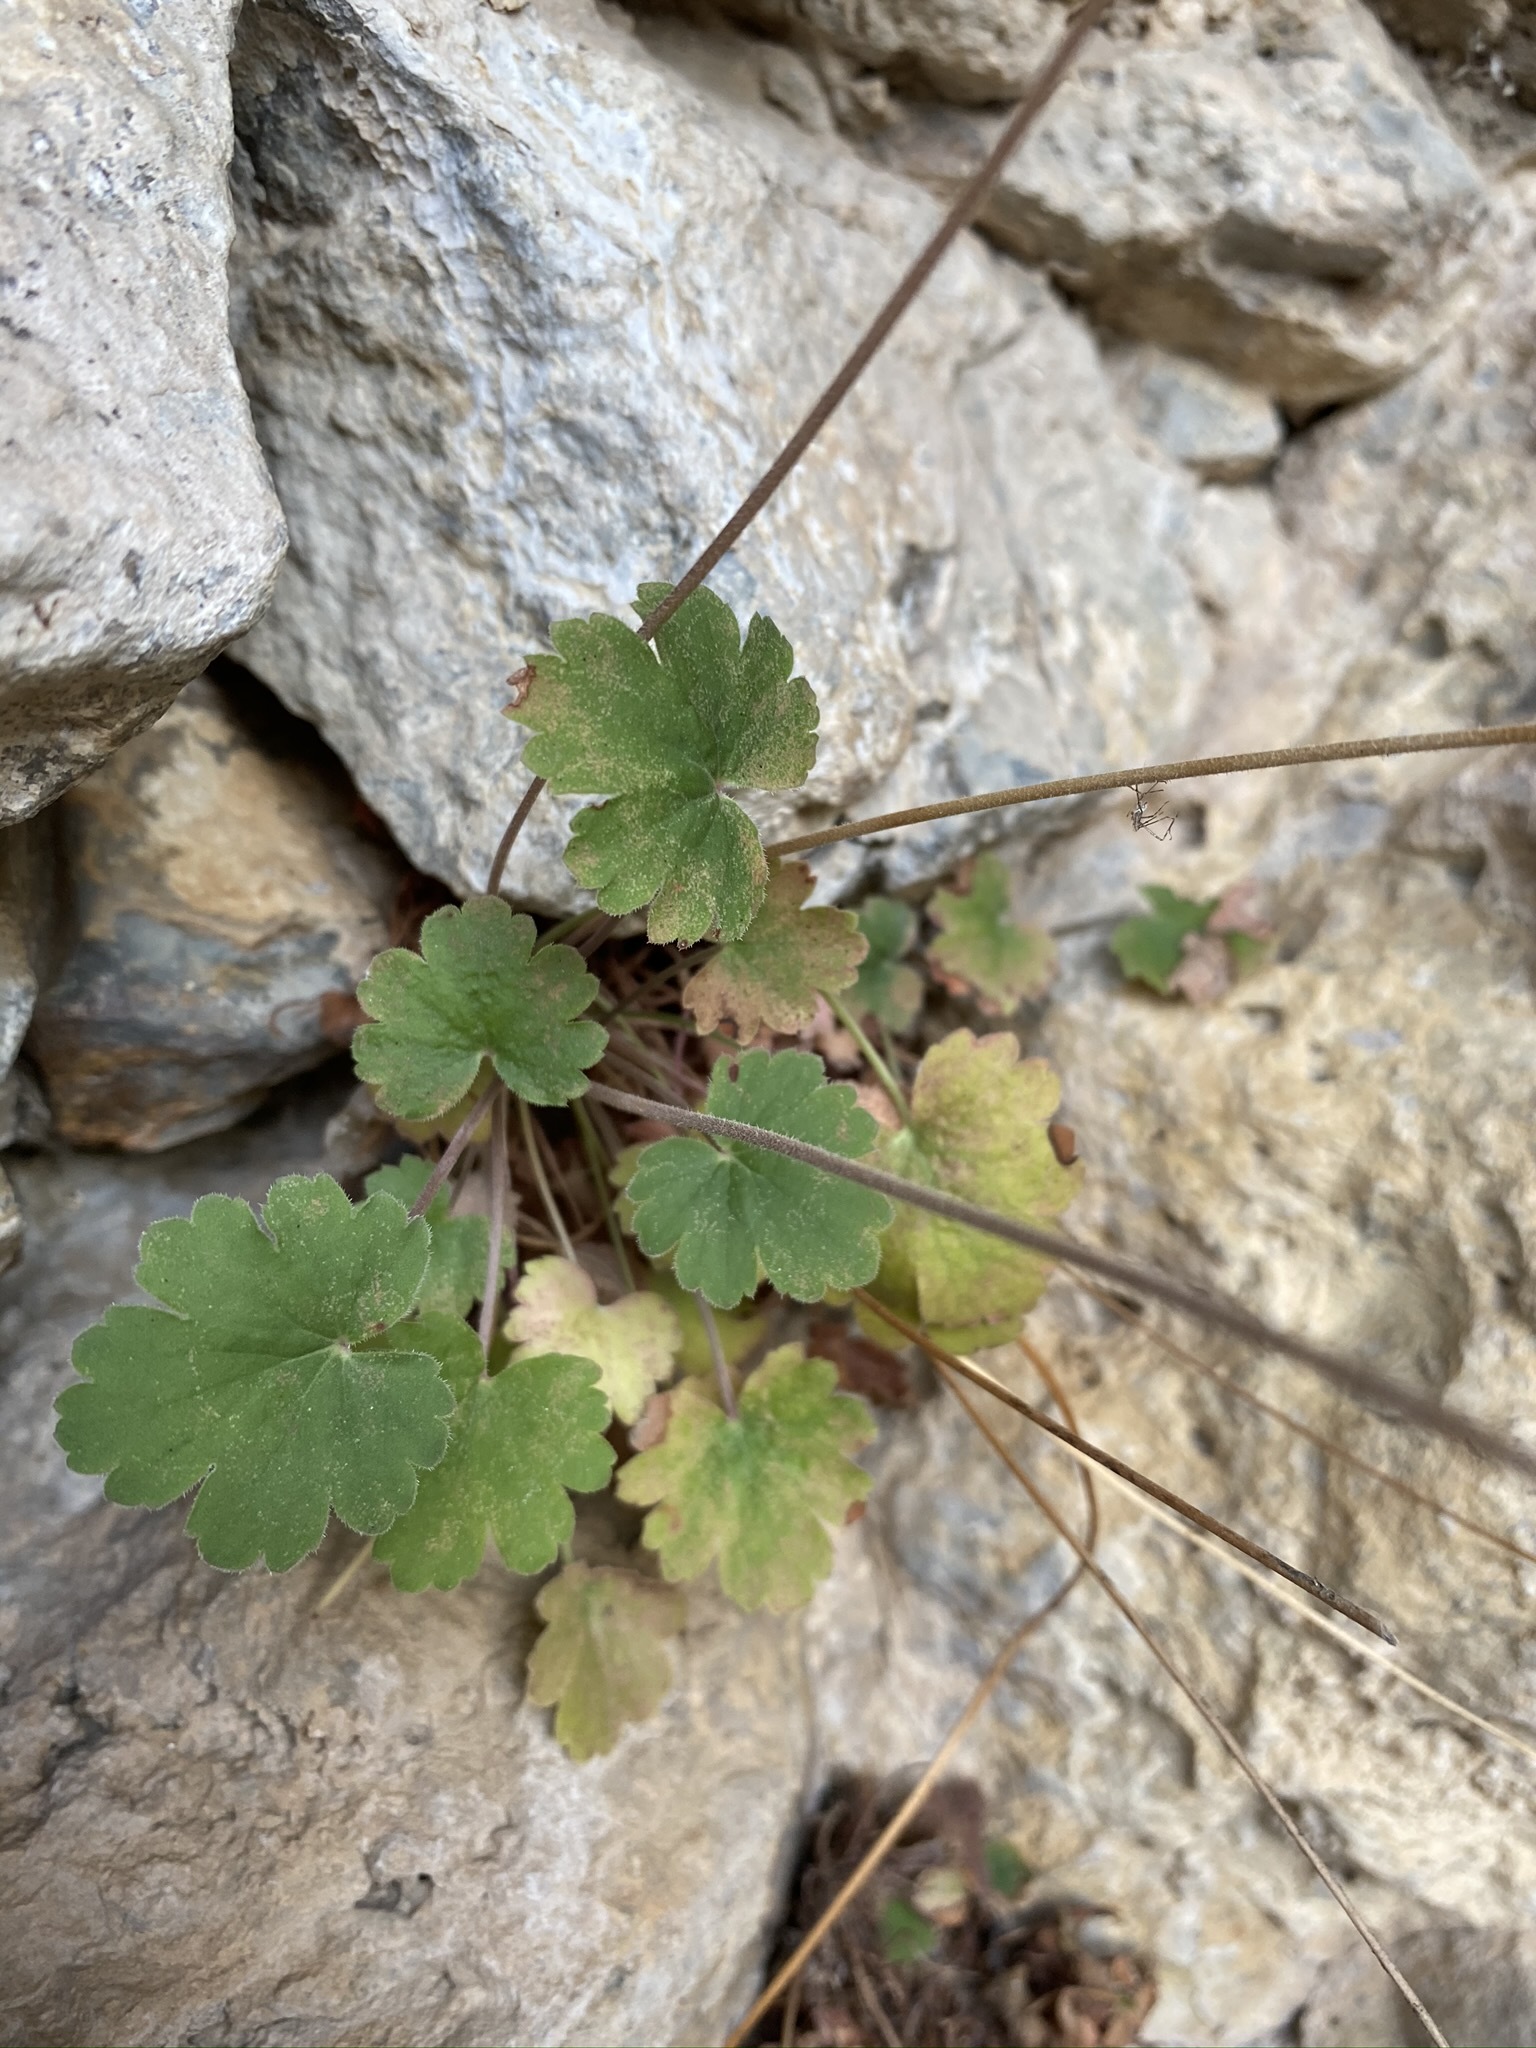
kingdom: Plantae
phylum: Tracheophyta
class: Magnoliopsida
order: Saxifragales
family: Saxifragaceae
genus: Heuchera
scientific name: Heuchera parvifolia
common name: Common alumroot
